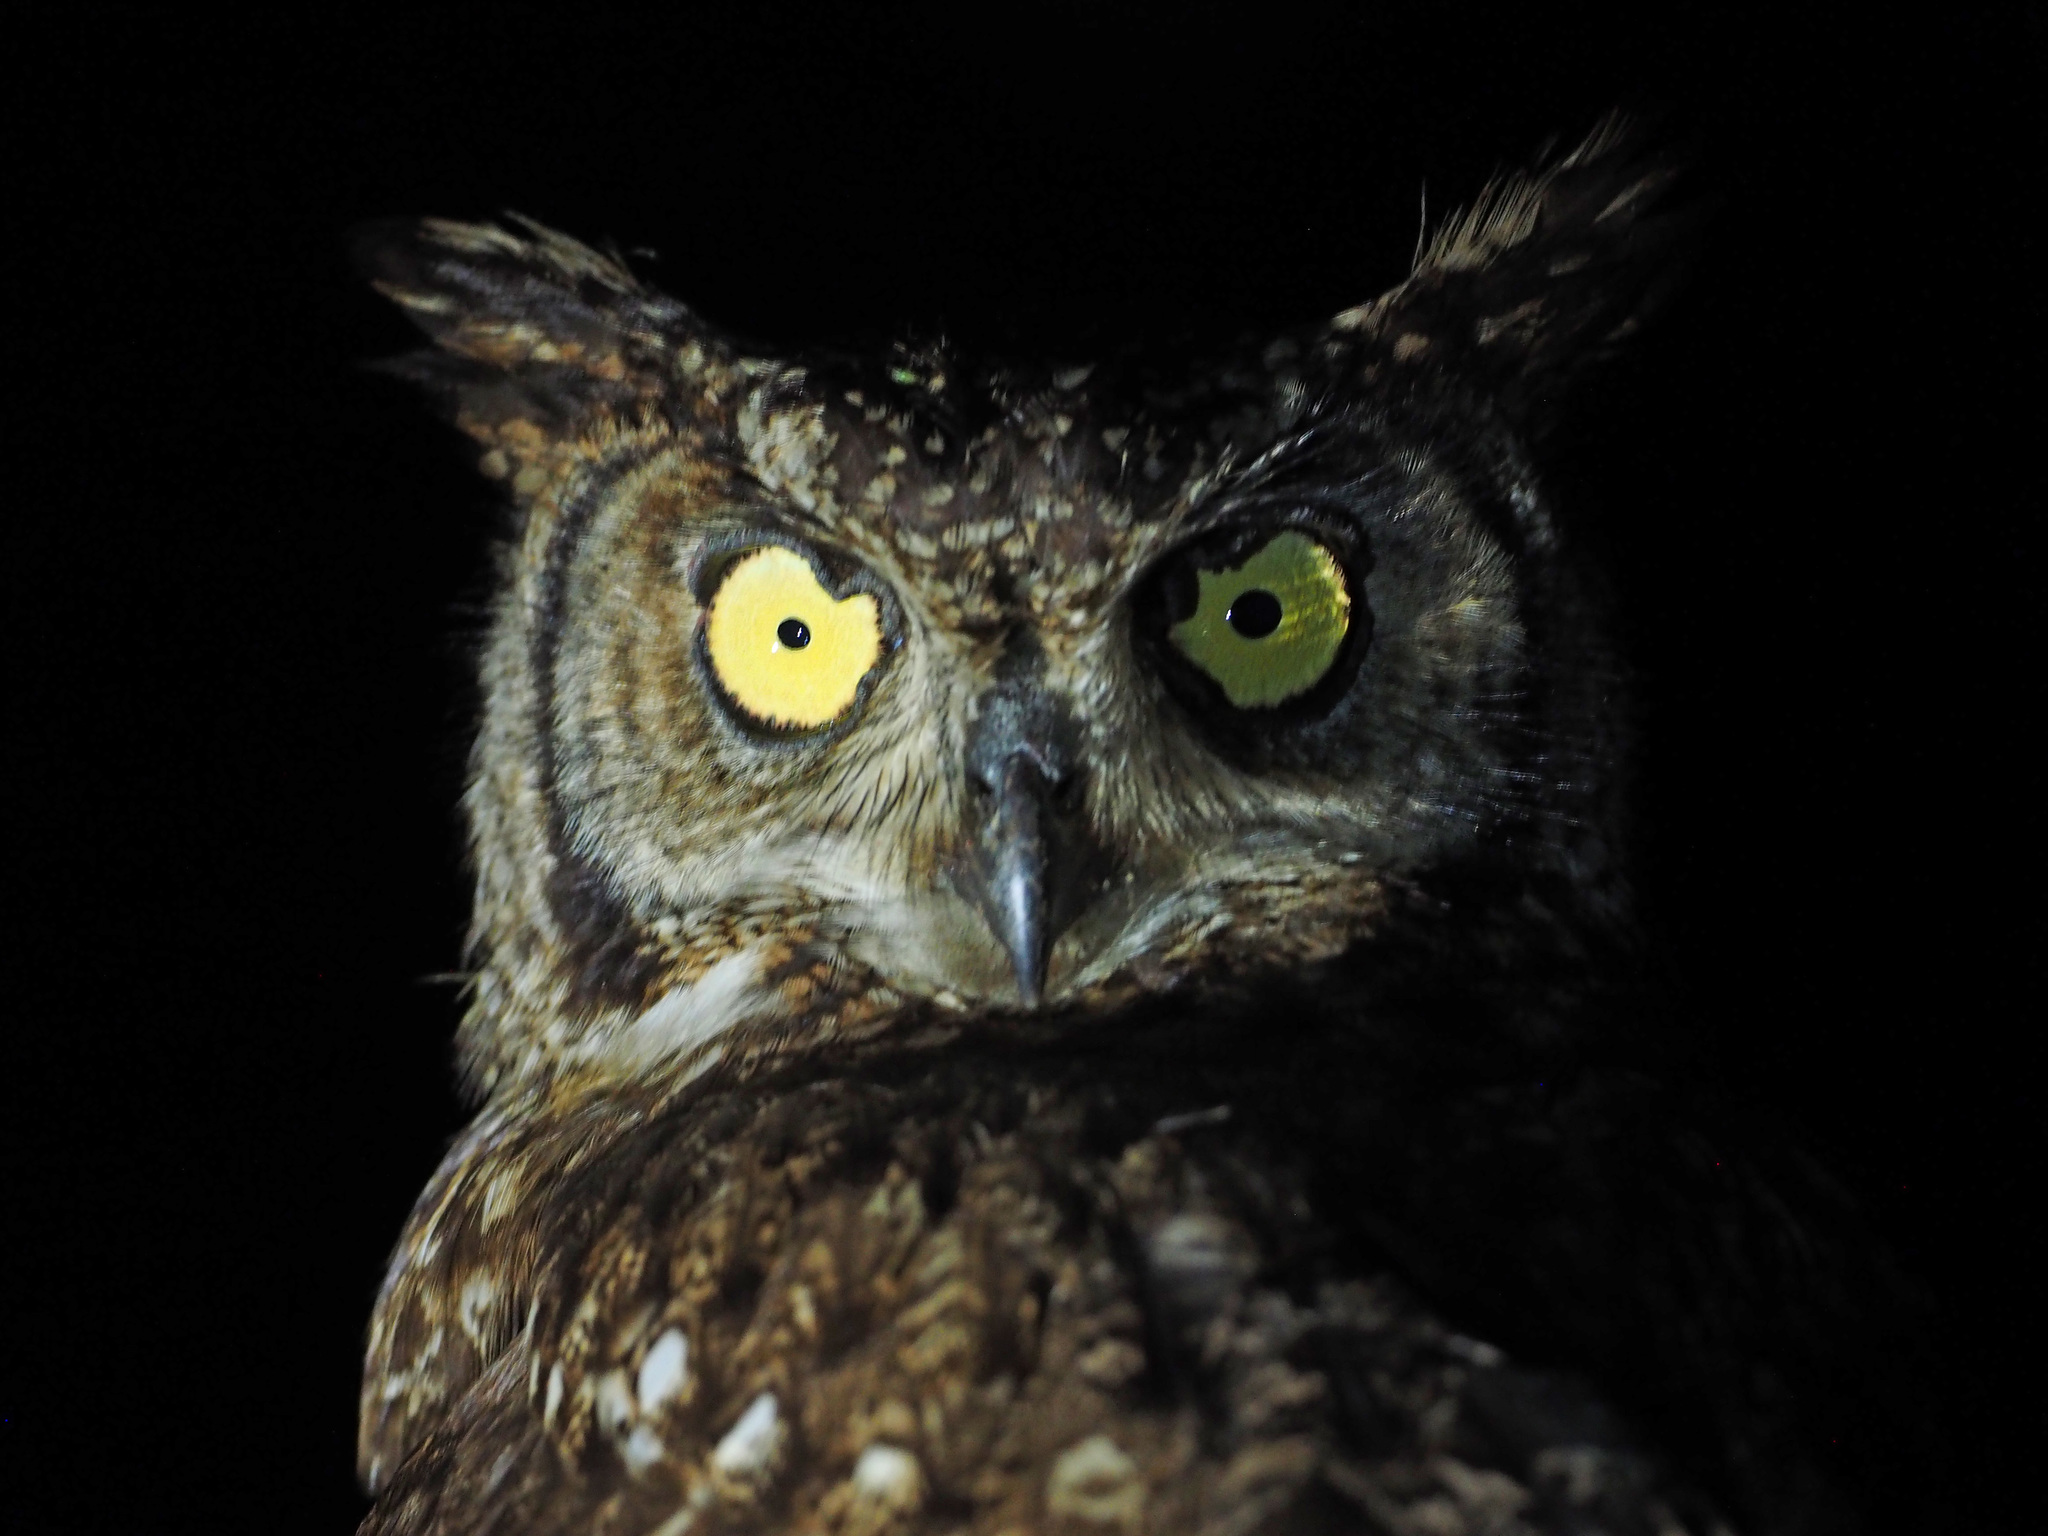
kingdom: Animalia
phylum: Chordata
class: Aves
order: Strigiformes
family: Strigidae
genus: Bubo
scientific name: Bubo africanus
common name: Spotted eagle-owl
